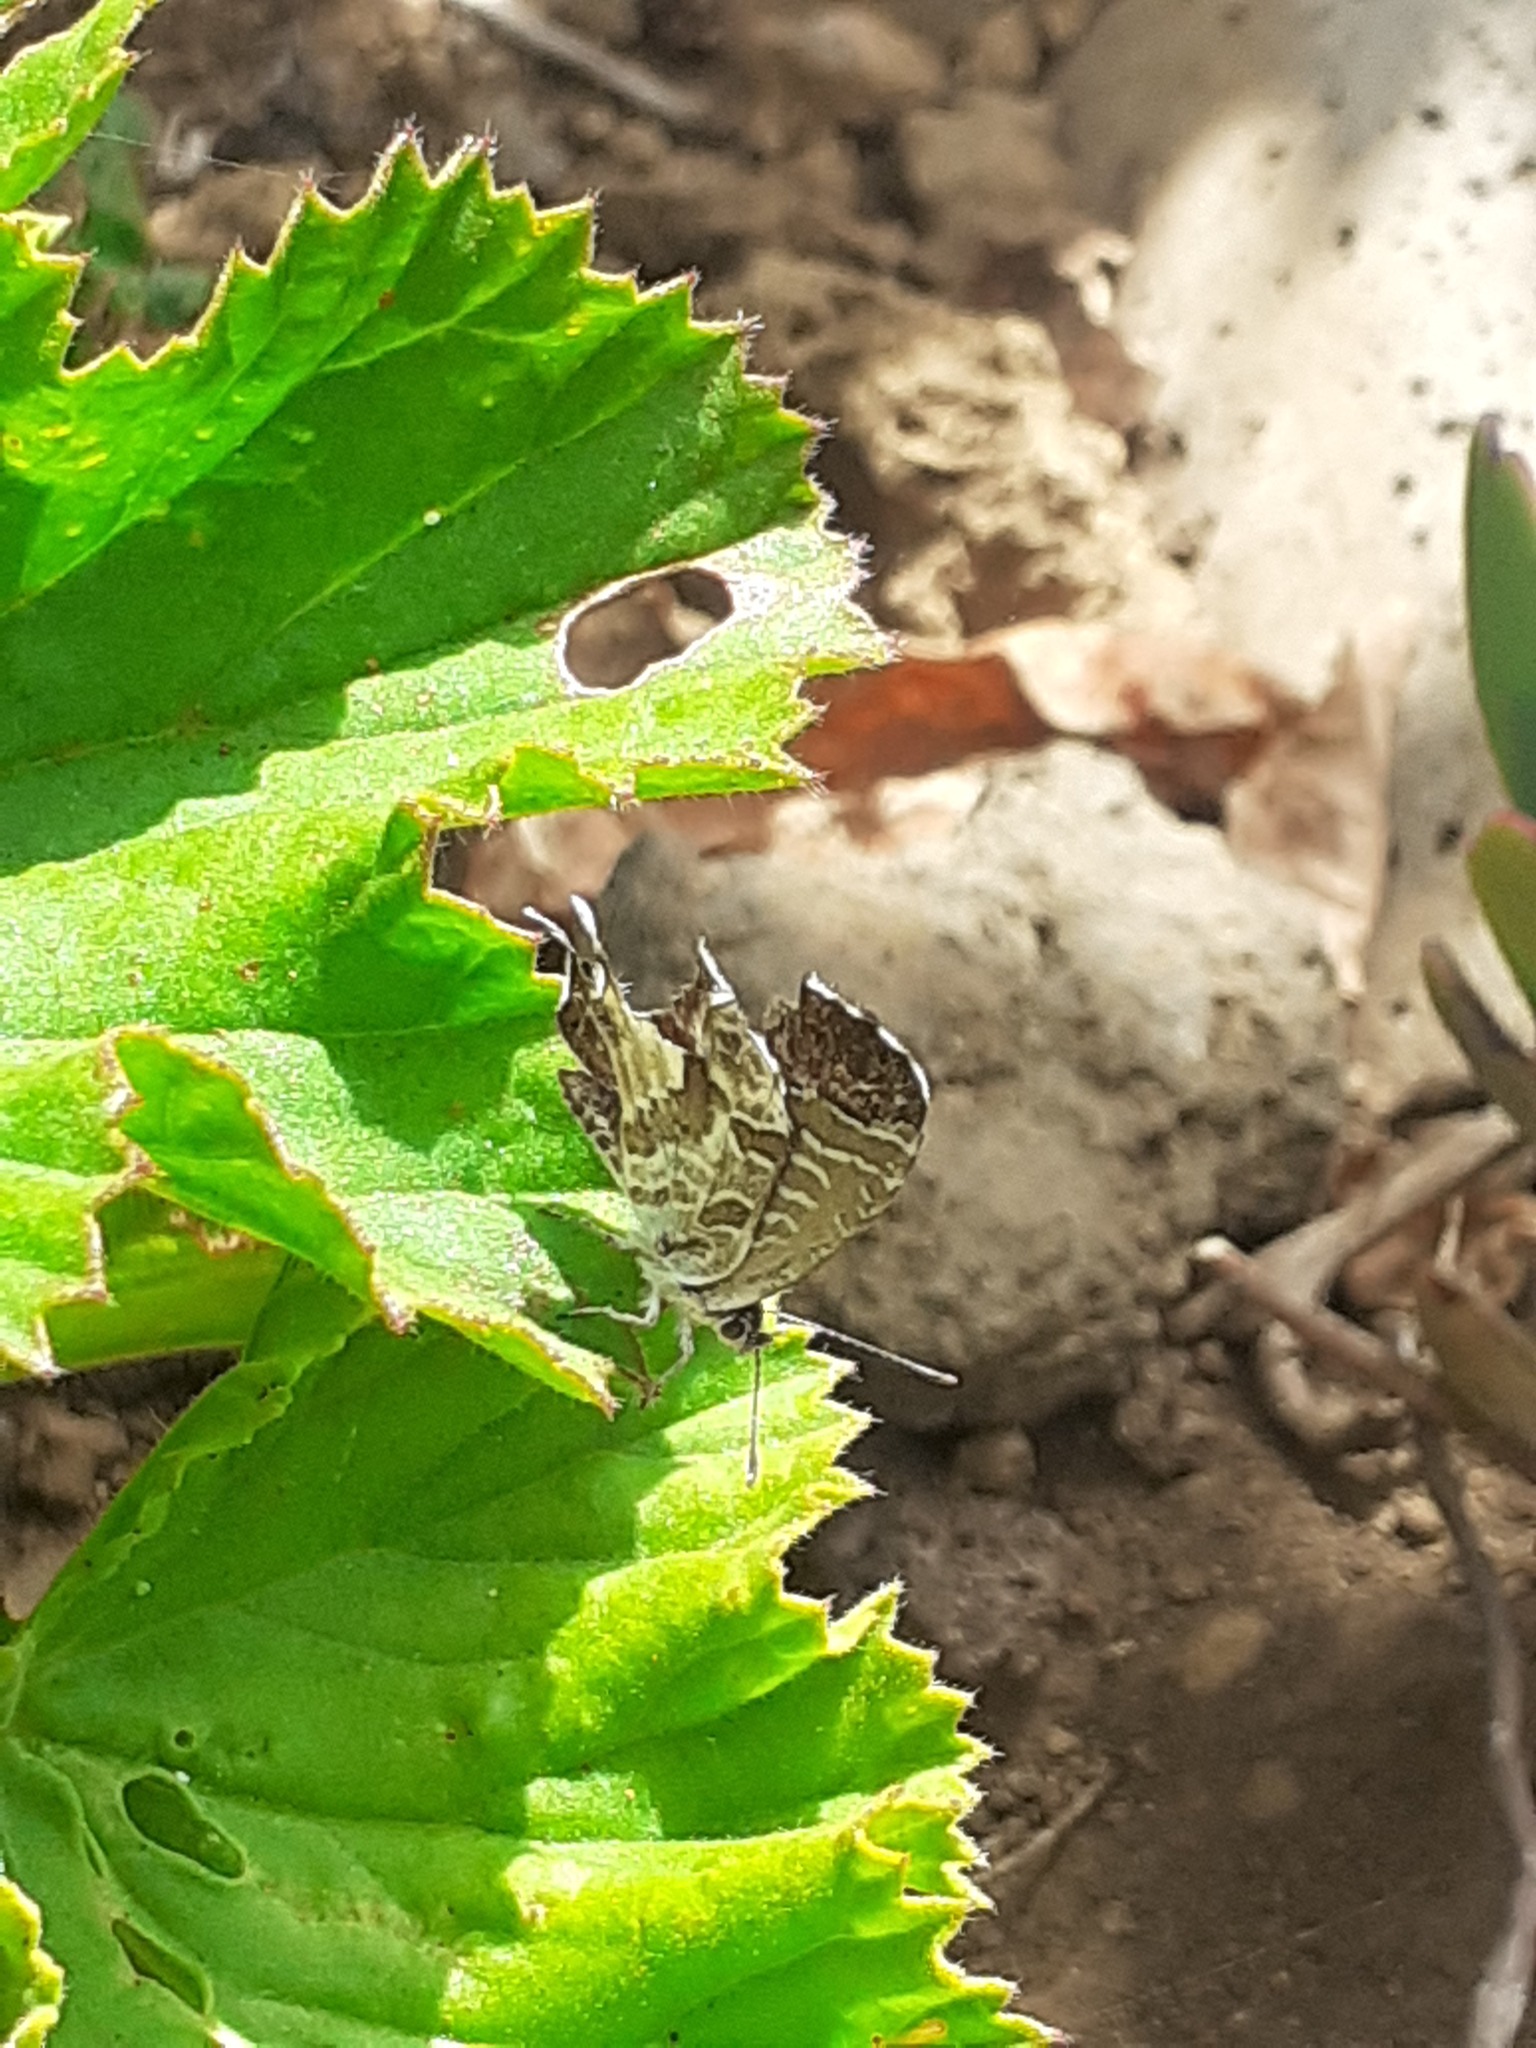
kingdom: Animalia
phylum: Arthropoda
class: Insecta
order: Lepidoptera
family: Lycaenidae
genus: Cacyreus
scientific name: Cacyreus marshalli
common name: Geranium bronze
